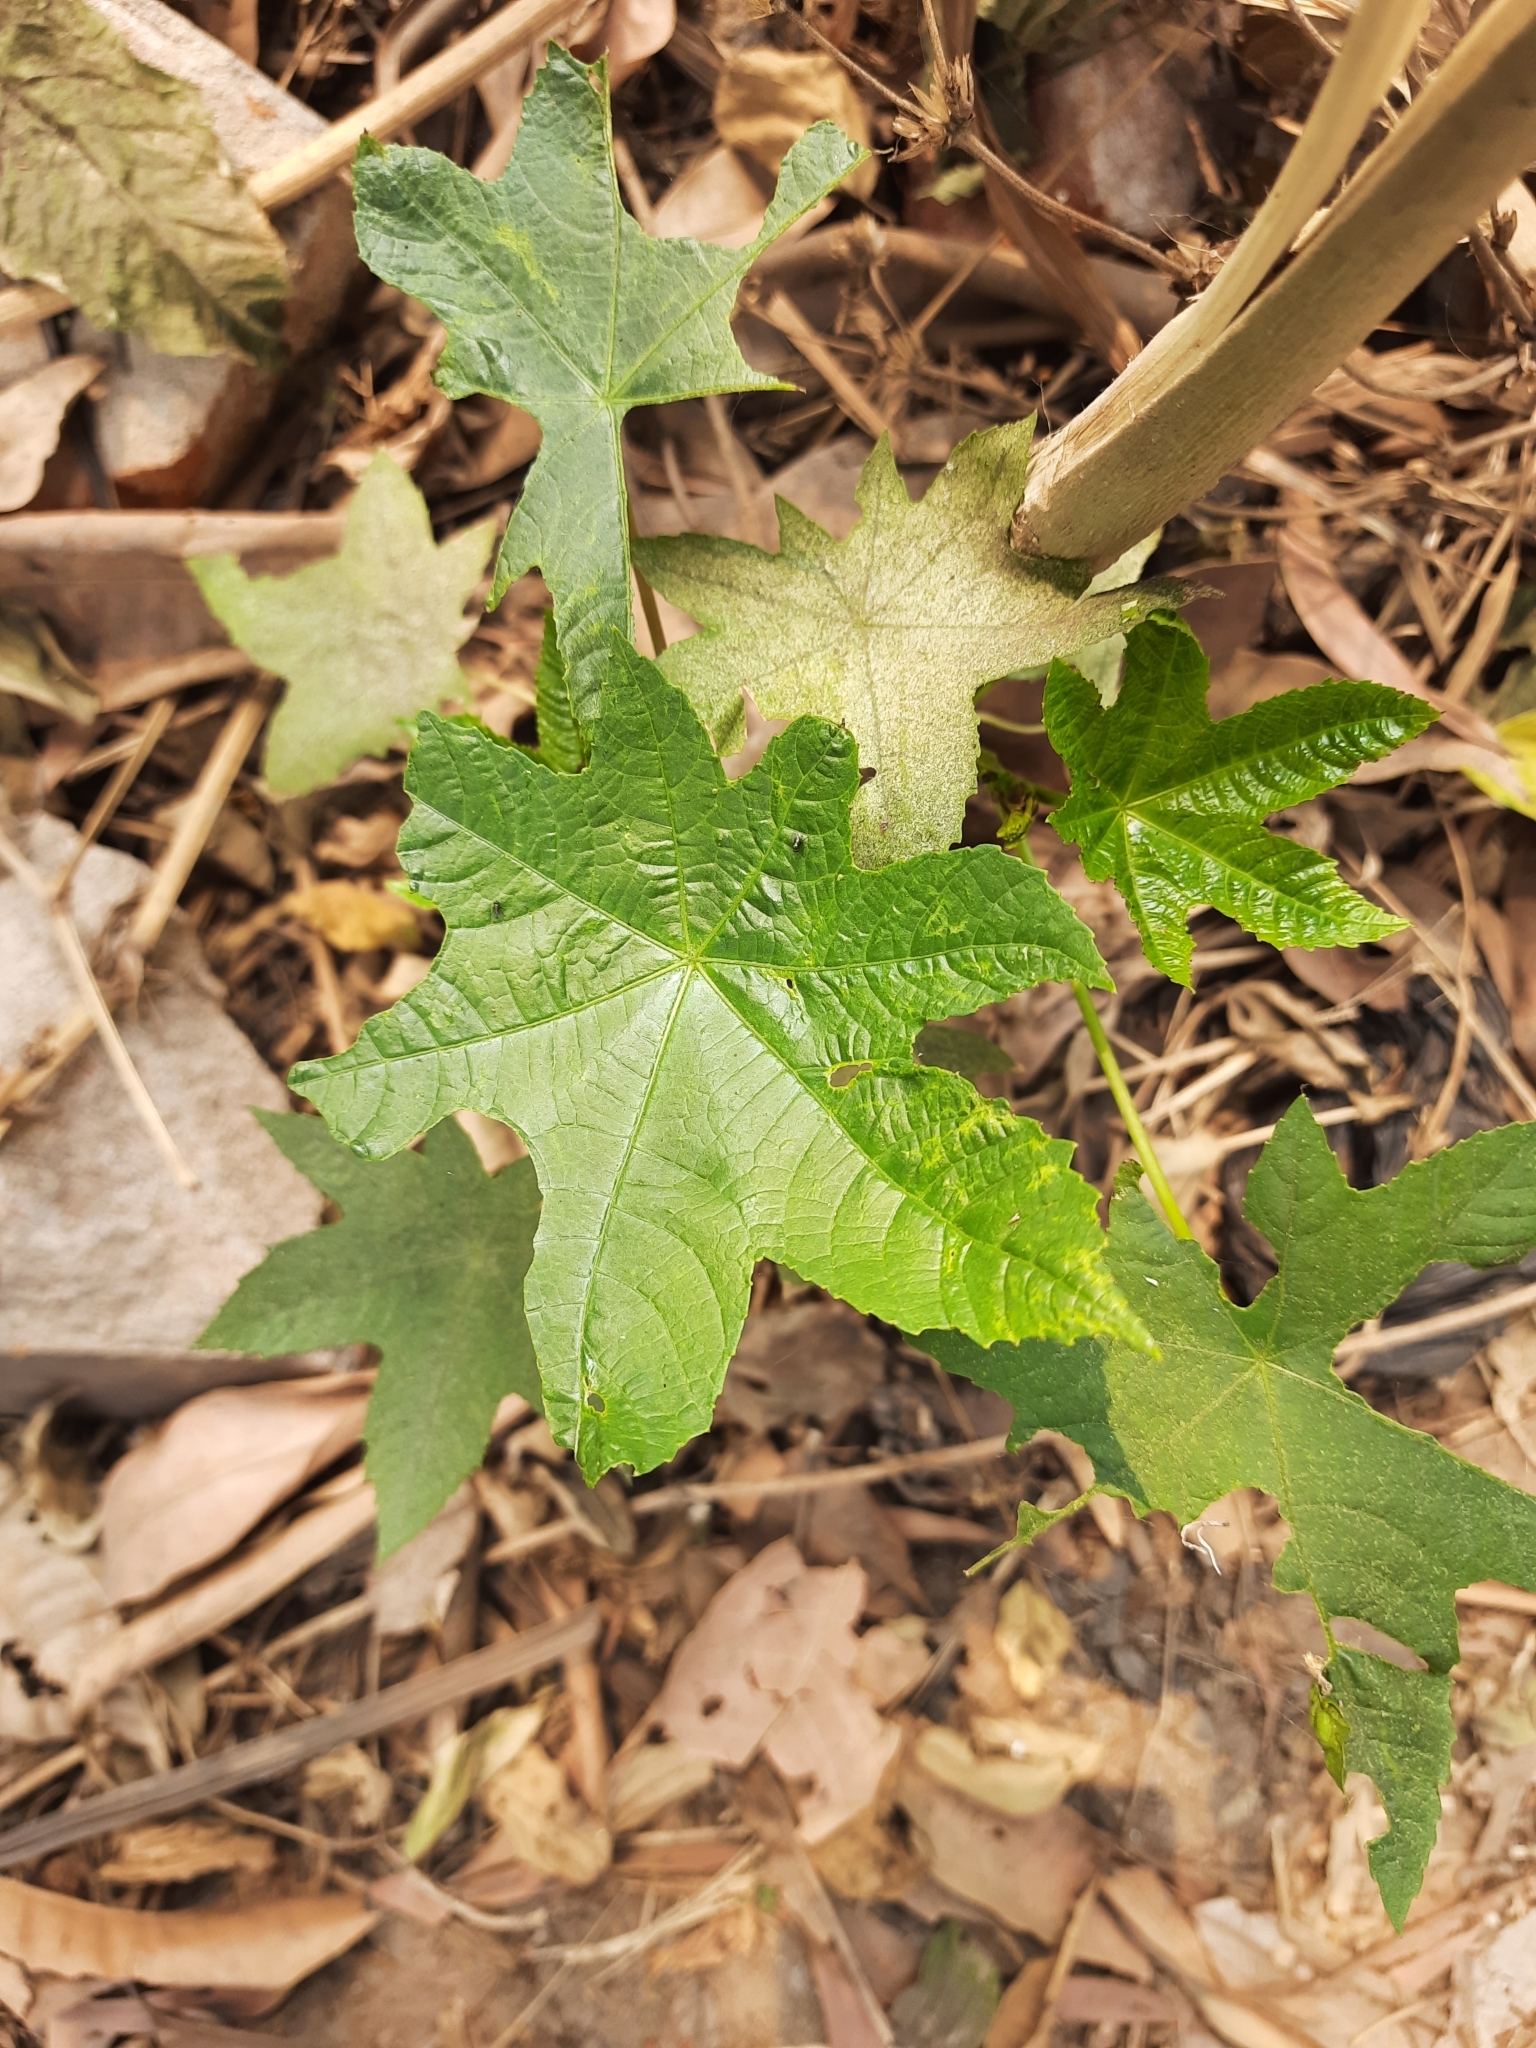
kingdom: Plantae
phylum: Tracheophyta
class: Magnoliopsida
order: Malpighiales
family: Euphorbiaceae
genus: Ricinus
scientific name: Ricinus communis
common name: Castor-oil-plant
